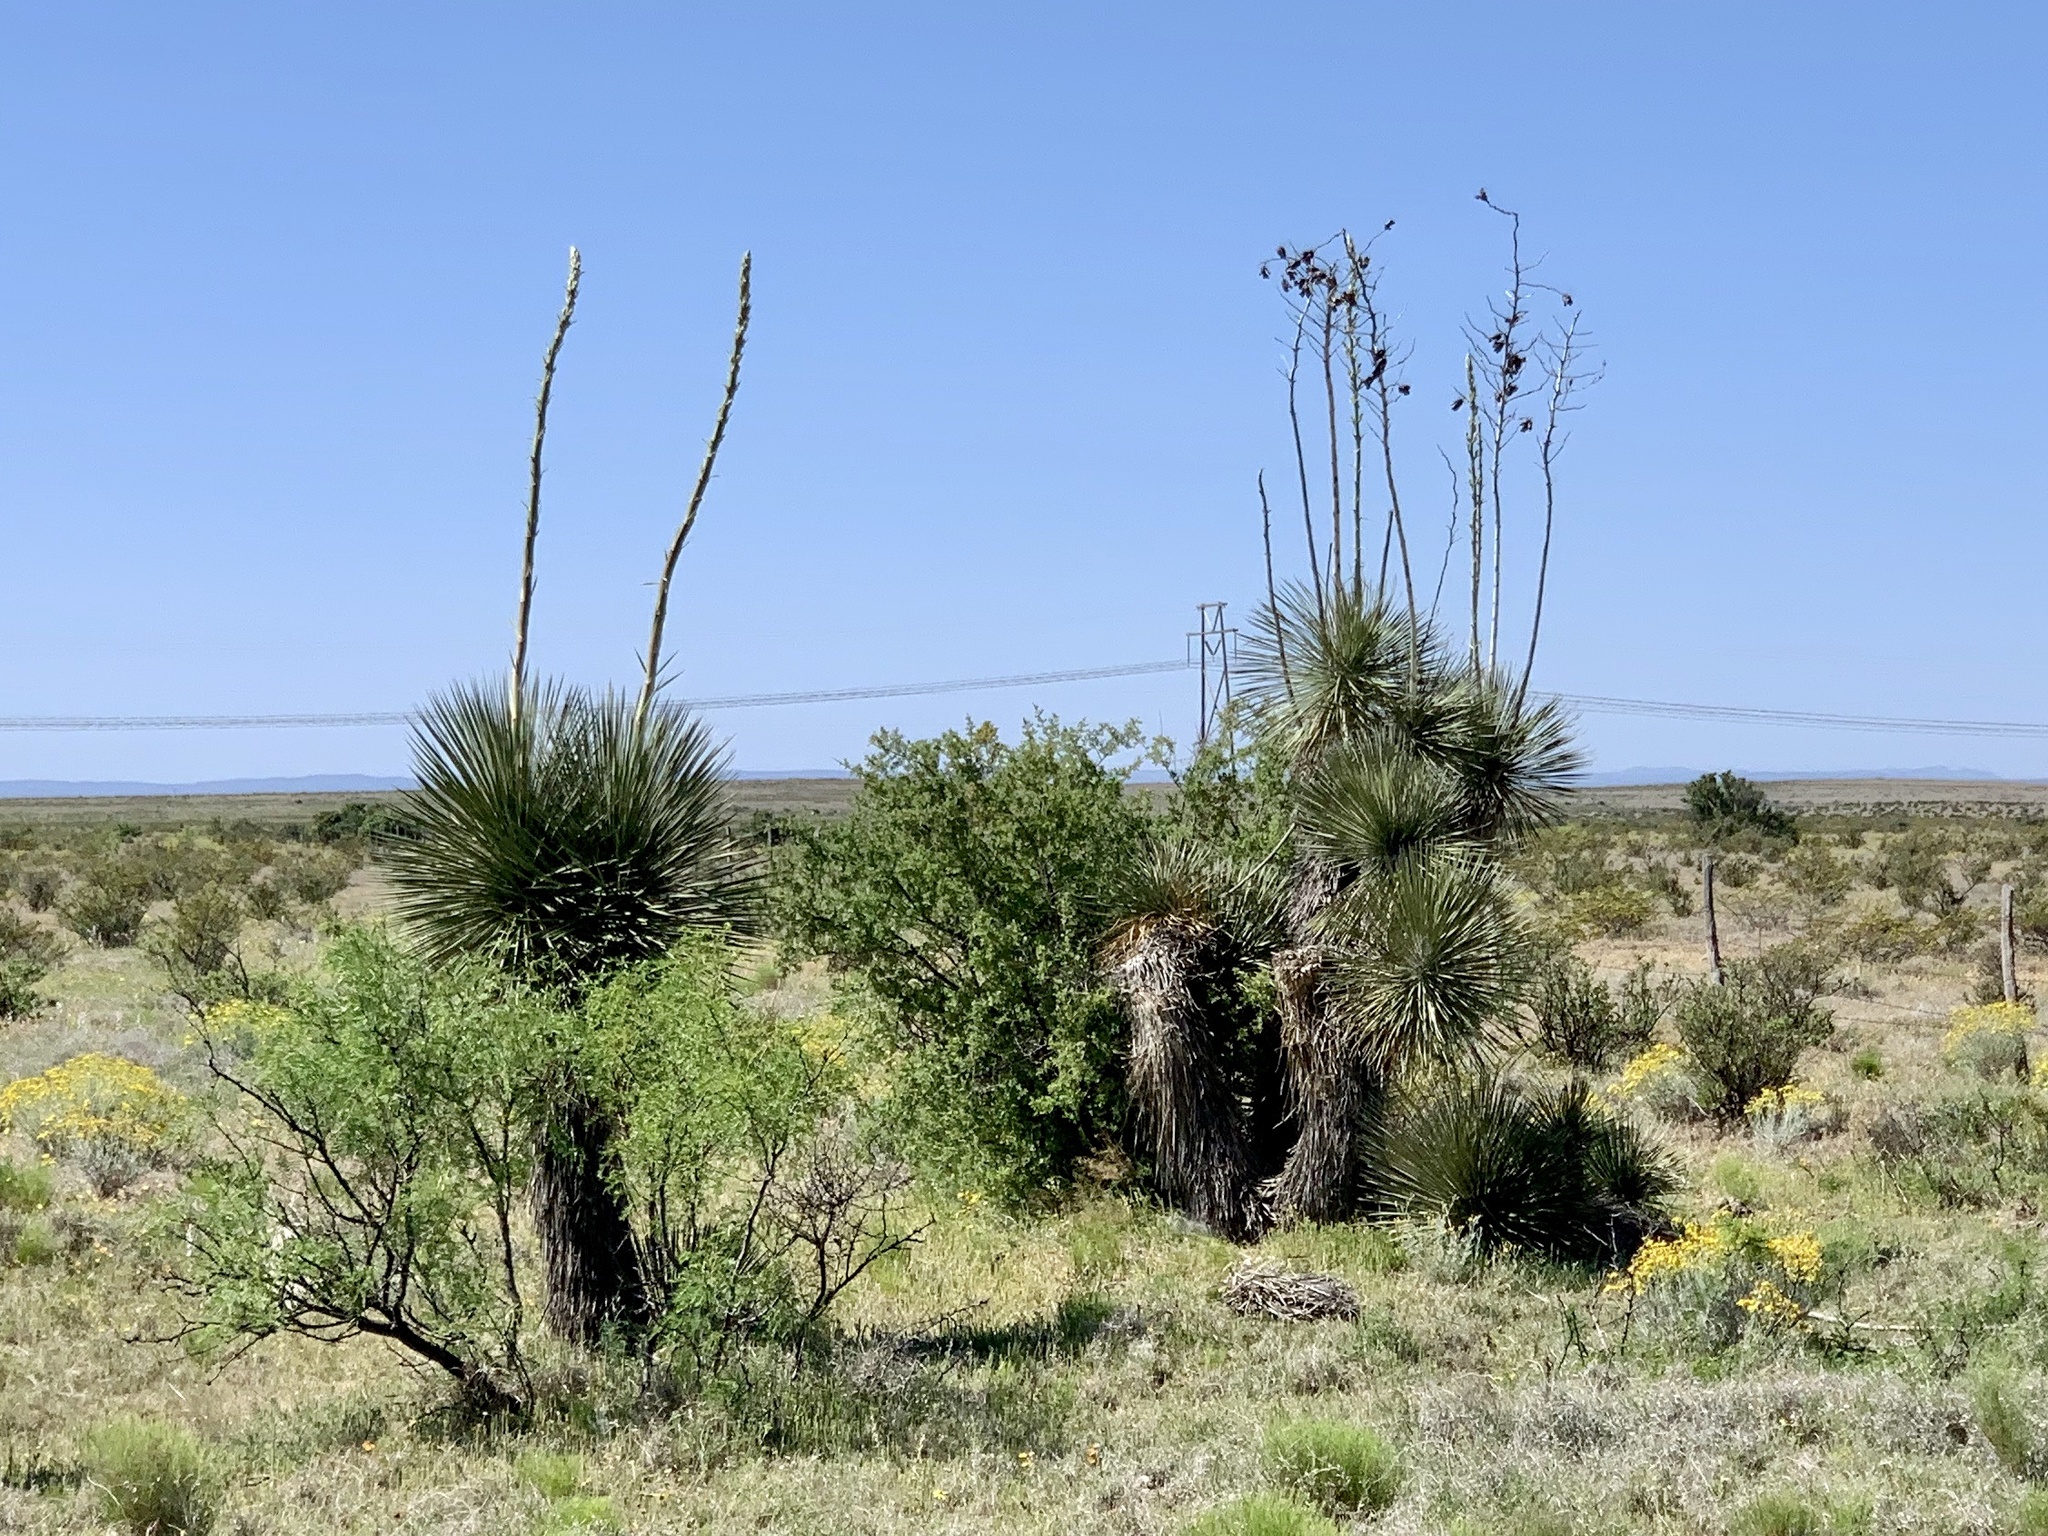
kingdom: Plantae
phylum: Tracheophyta
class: Liliopsida
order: Asparagales
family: Asparagaceae
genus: Yucca
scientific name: Yucca elata
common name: Palmella
